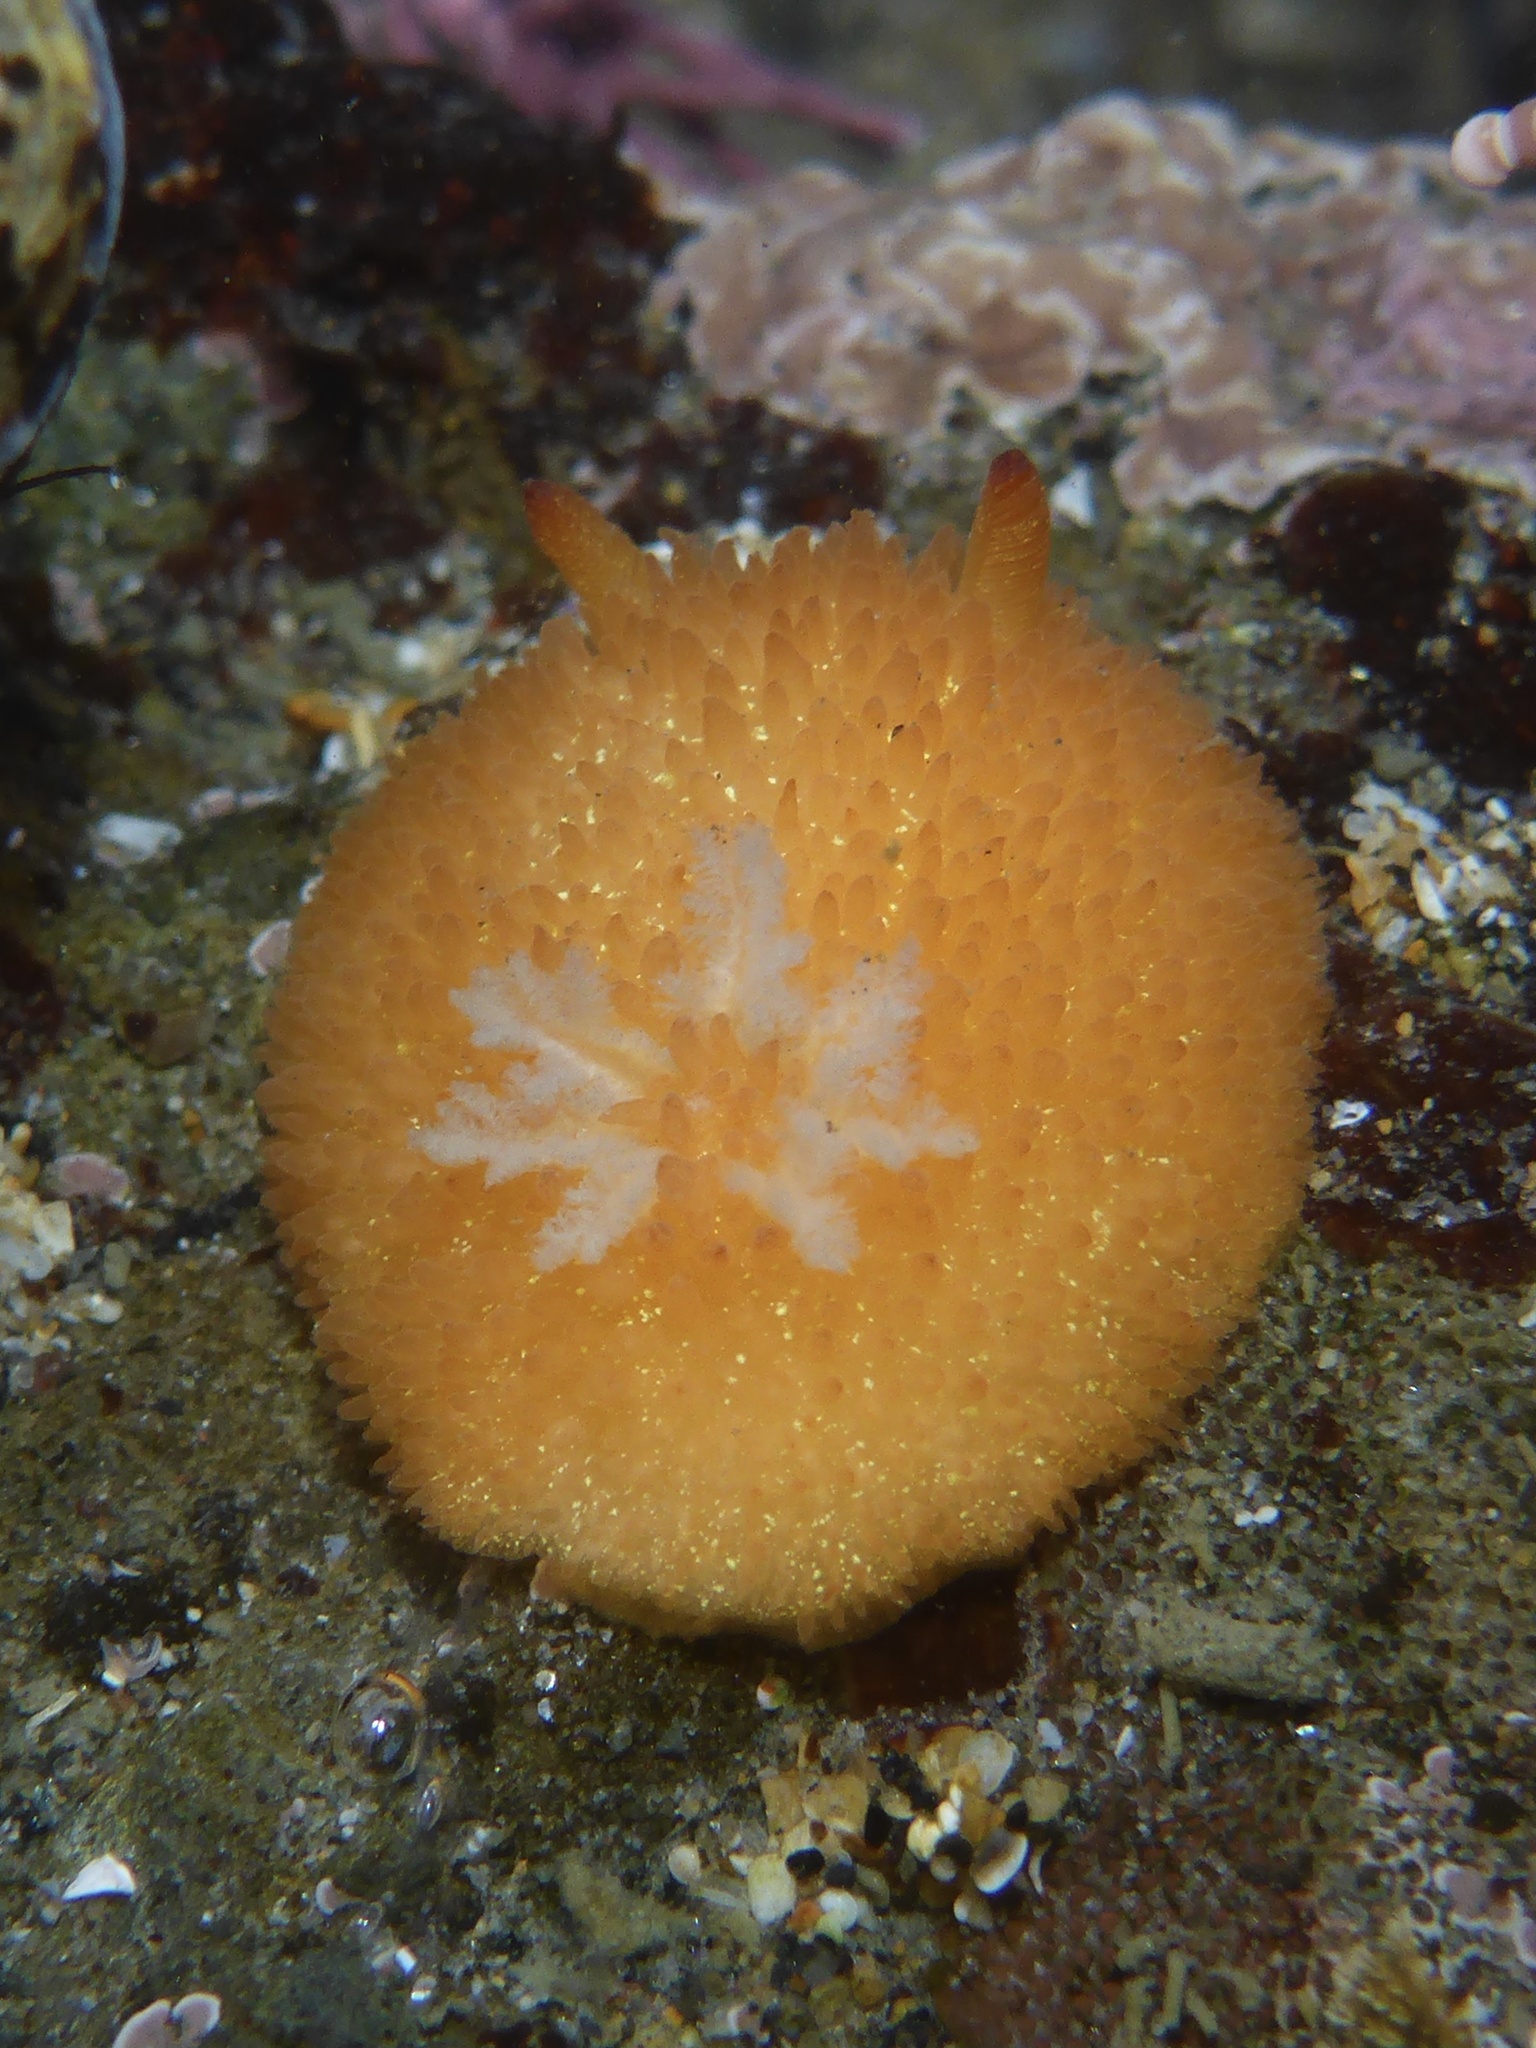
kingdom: Animalia
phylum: Mollusca
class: Gastropoda
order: Nudibranchia
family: Onchidorididae
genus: Acanthodoris
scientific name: Acanthodoris lutea
